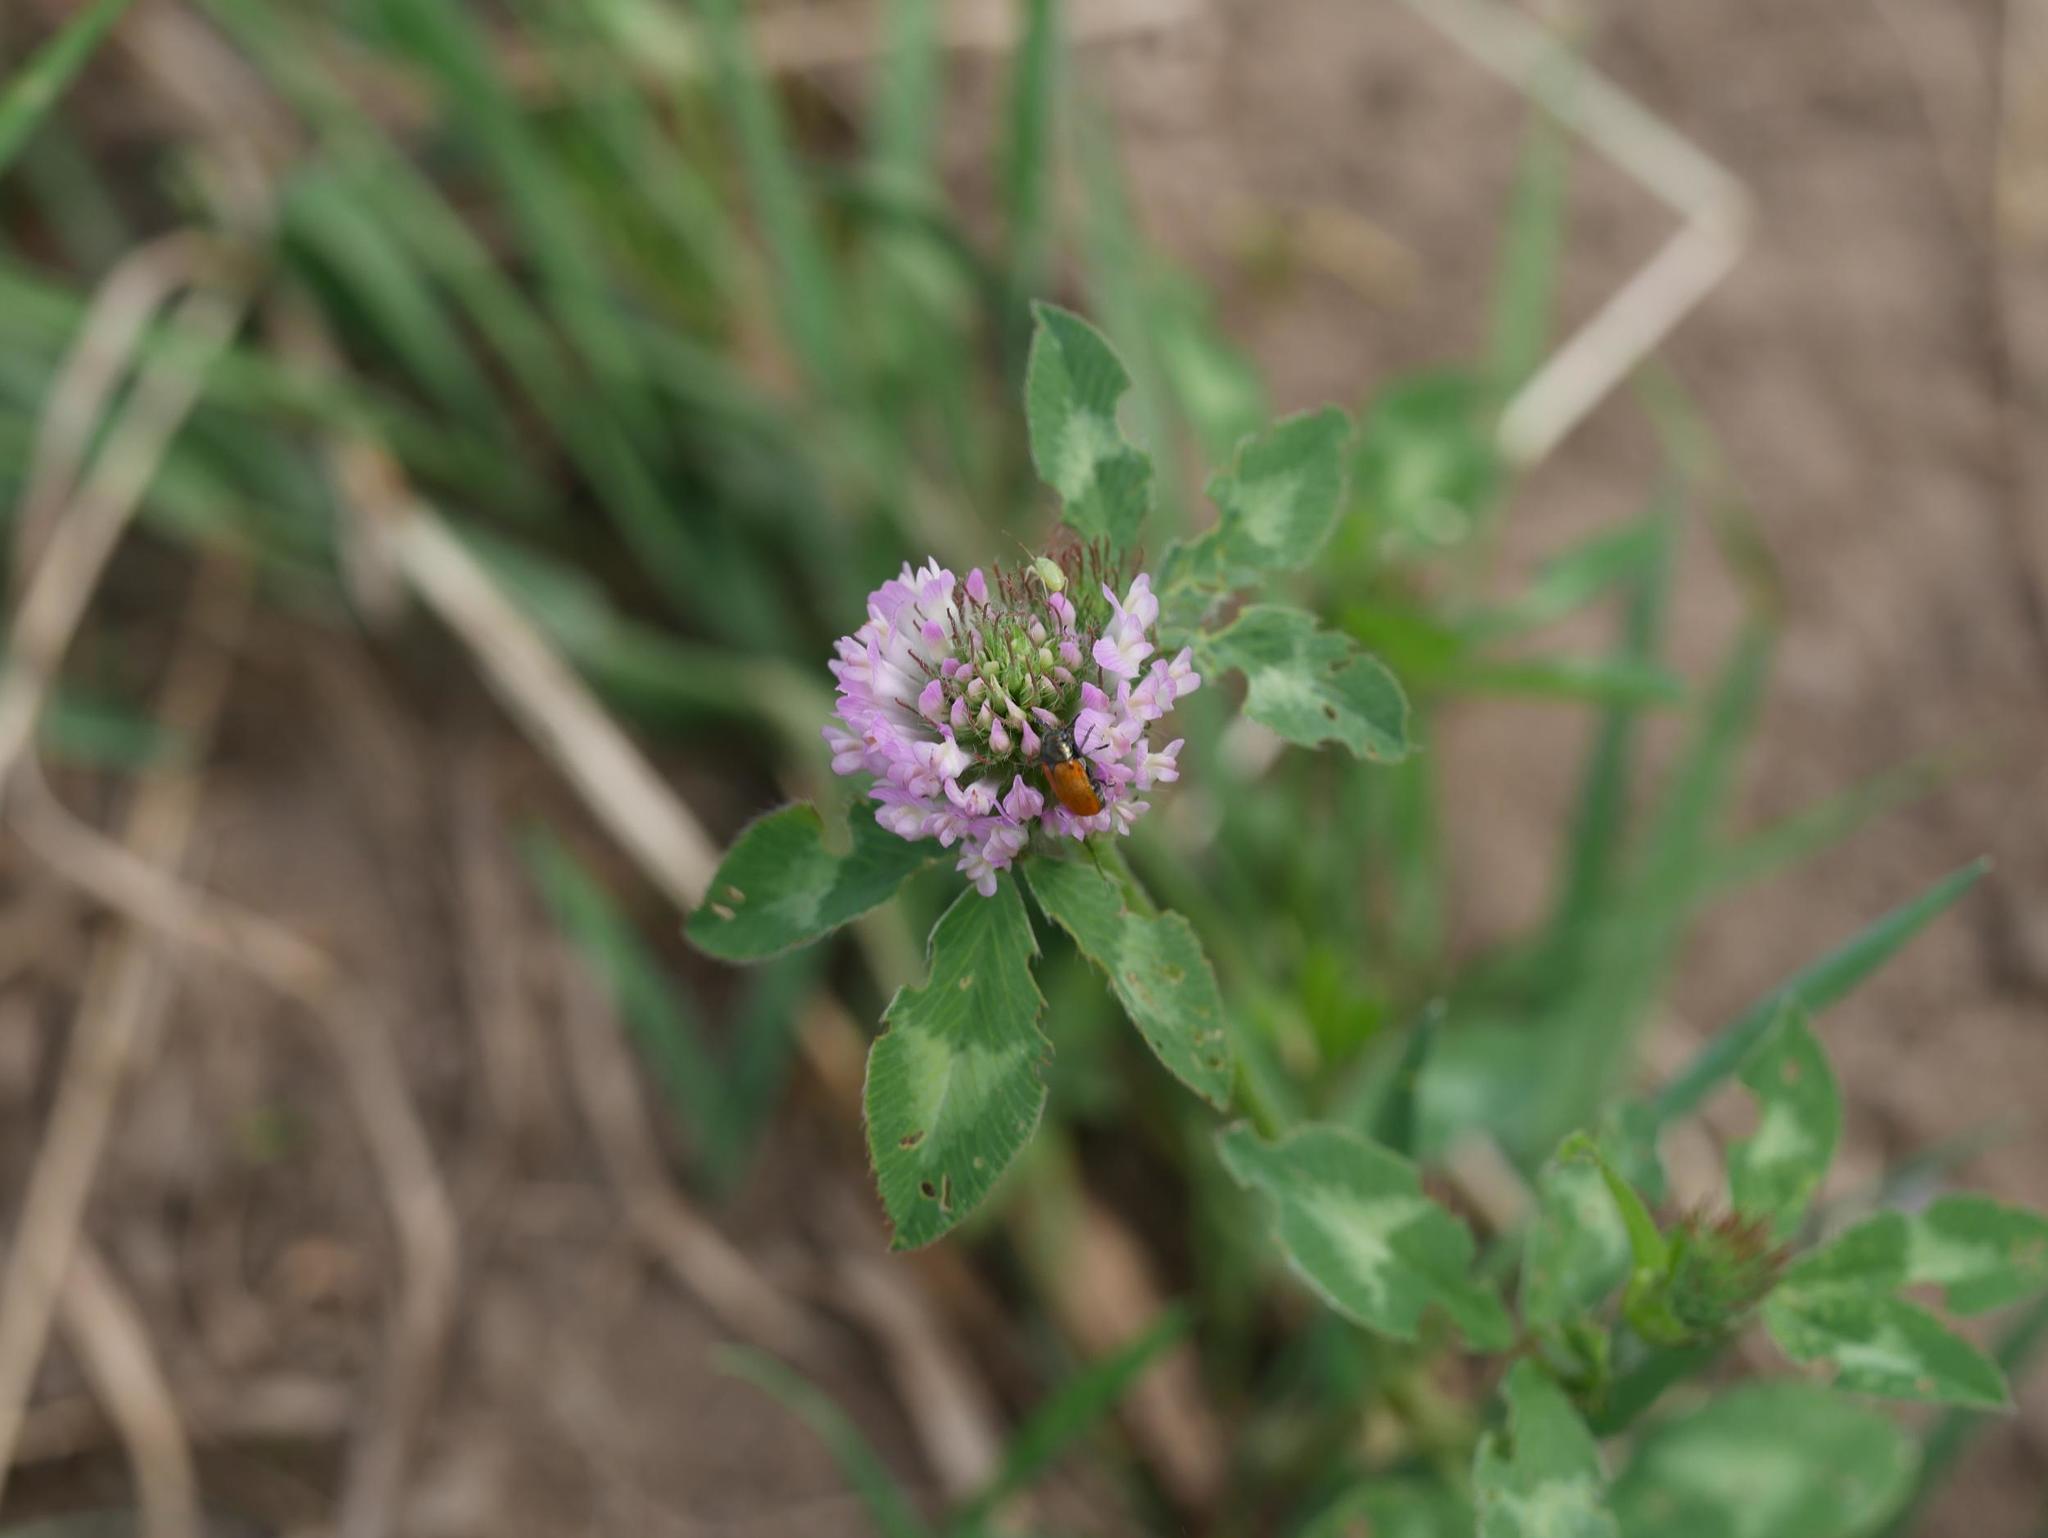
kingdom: Plantae
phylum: Tracheophyta
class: Magnoliopsida
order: Fabales
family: Fabaceae
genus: Trifolium
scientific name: Trifolium pratense
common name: Red clover
